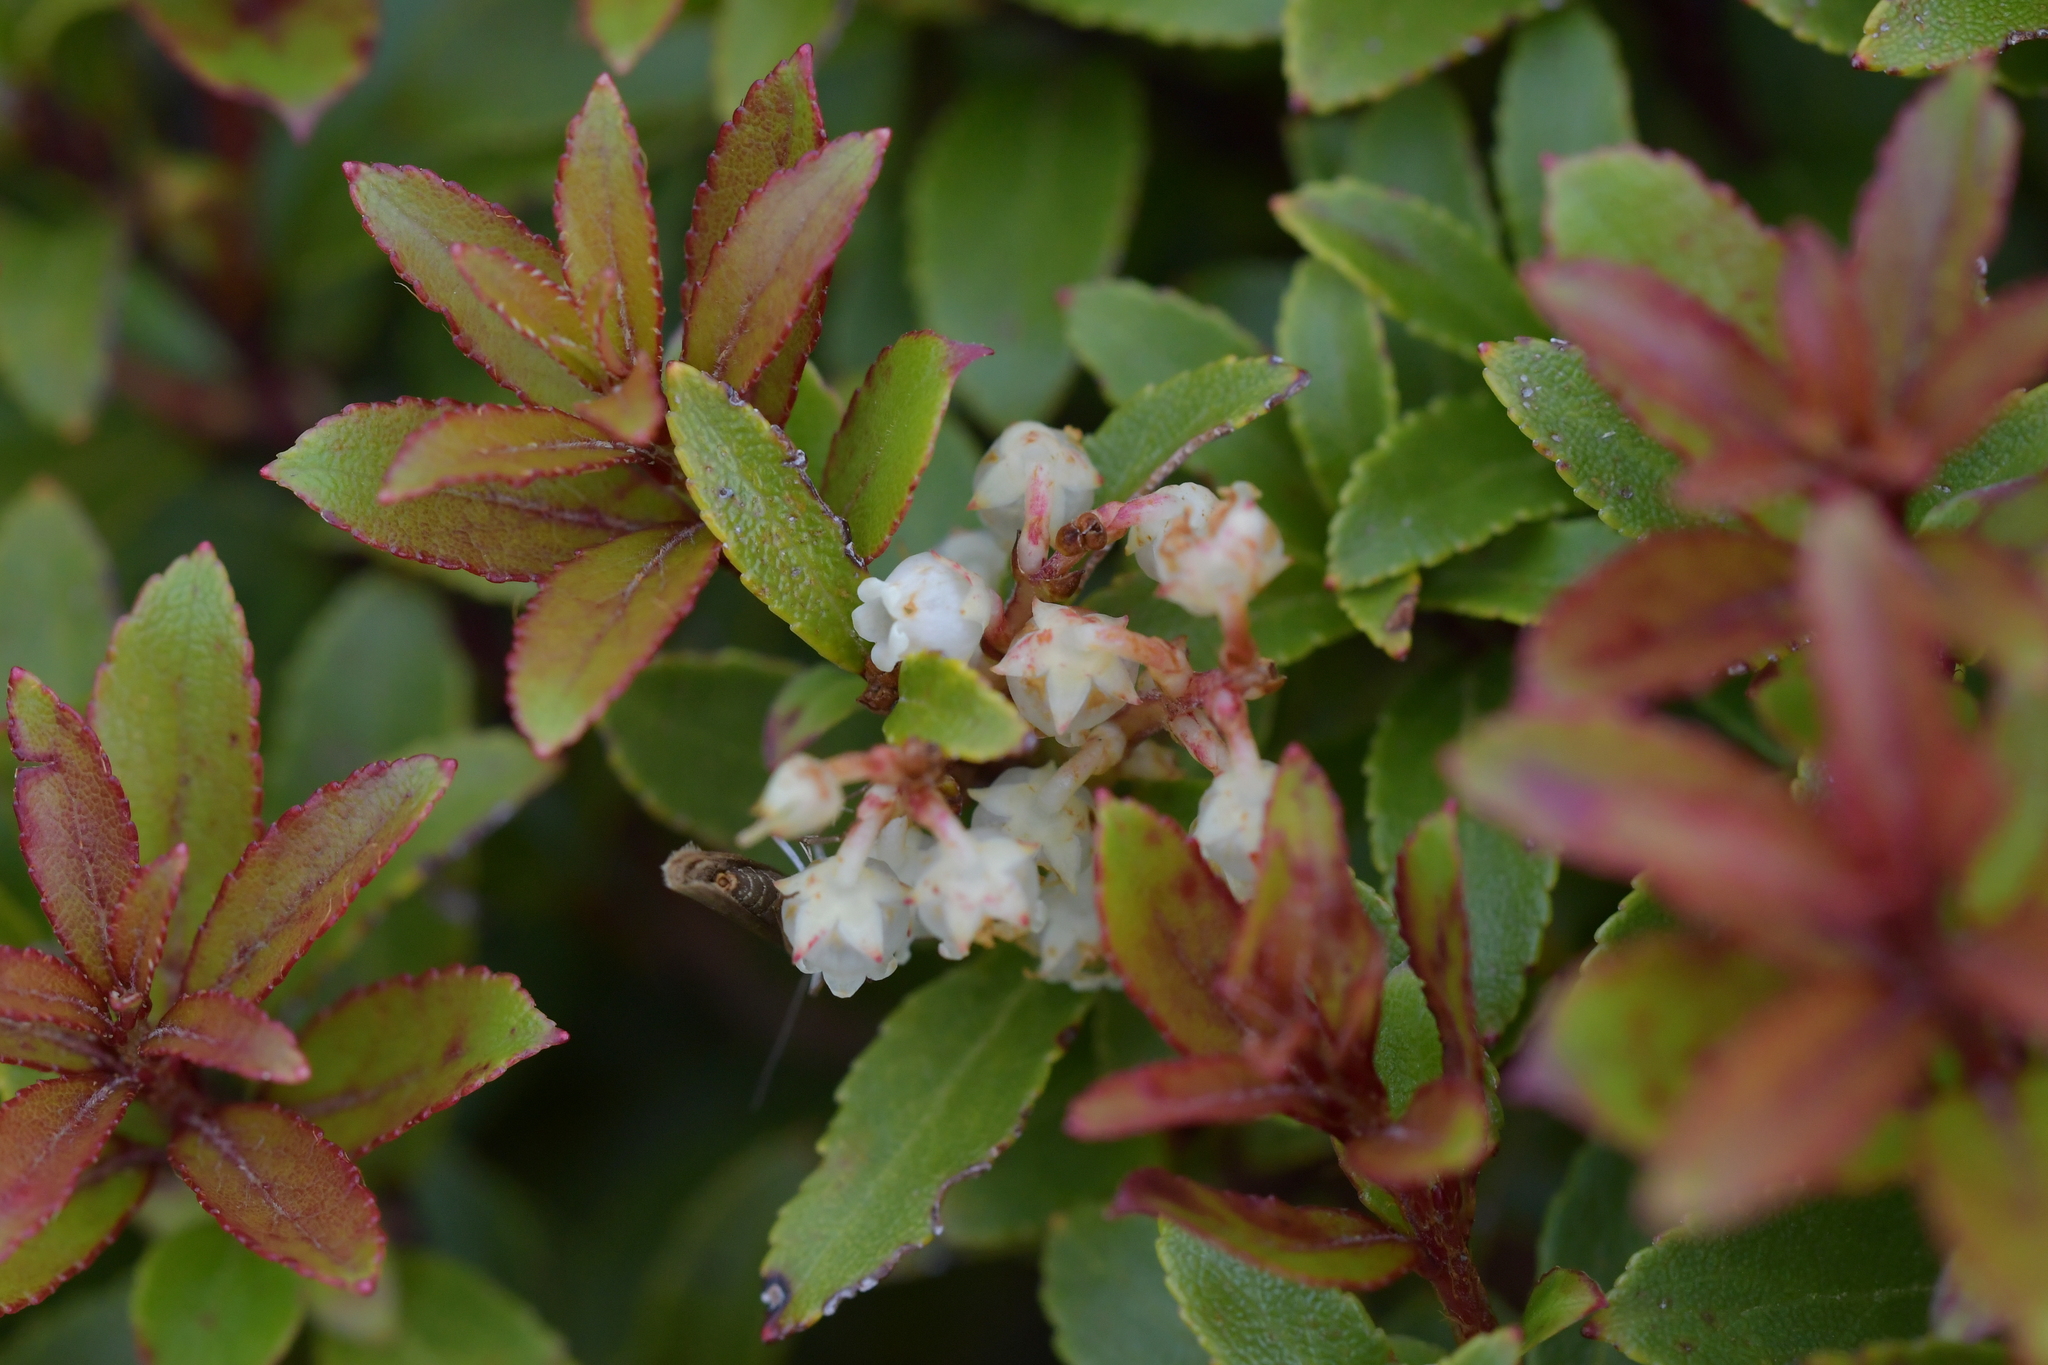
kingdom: Plantae
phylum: Tracheophyta
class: Magnoliopsida
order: Ericales
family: Ericaceae
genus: Gaultheria
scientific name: Gaultheria crassa
